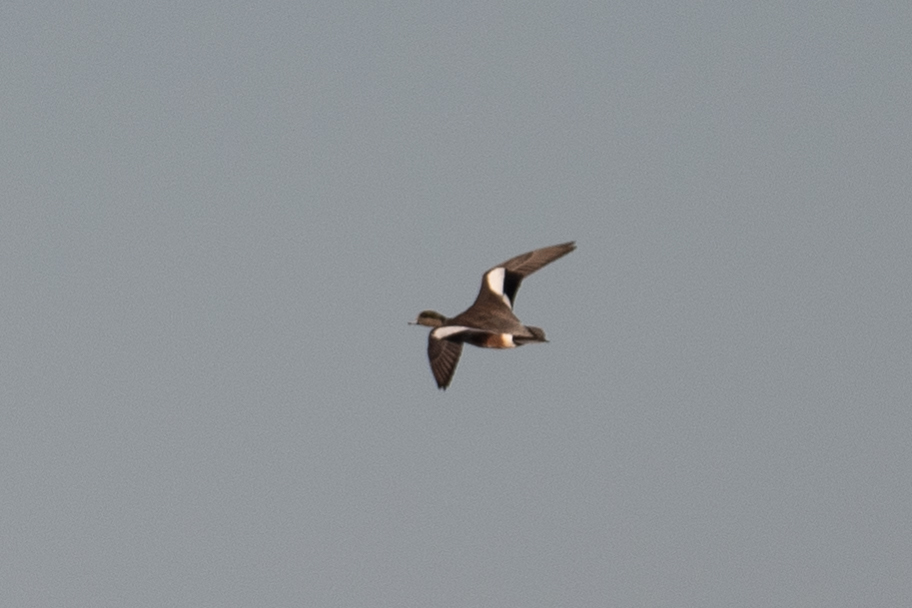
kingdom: Animalia
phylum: Chordata
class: Aves
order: Anseriformes
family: Anatidae
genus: Mareca
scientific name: Mareca americana
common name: American wigeon
